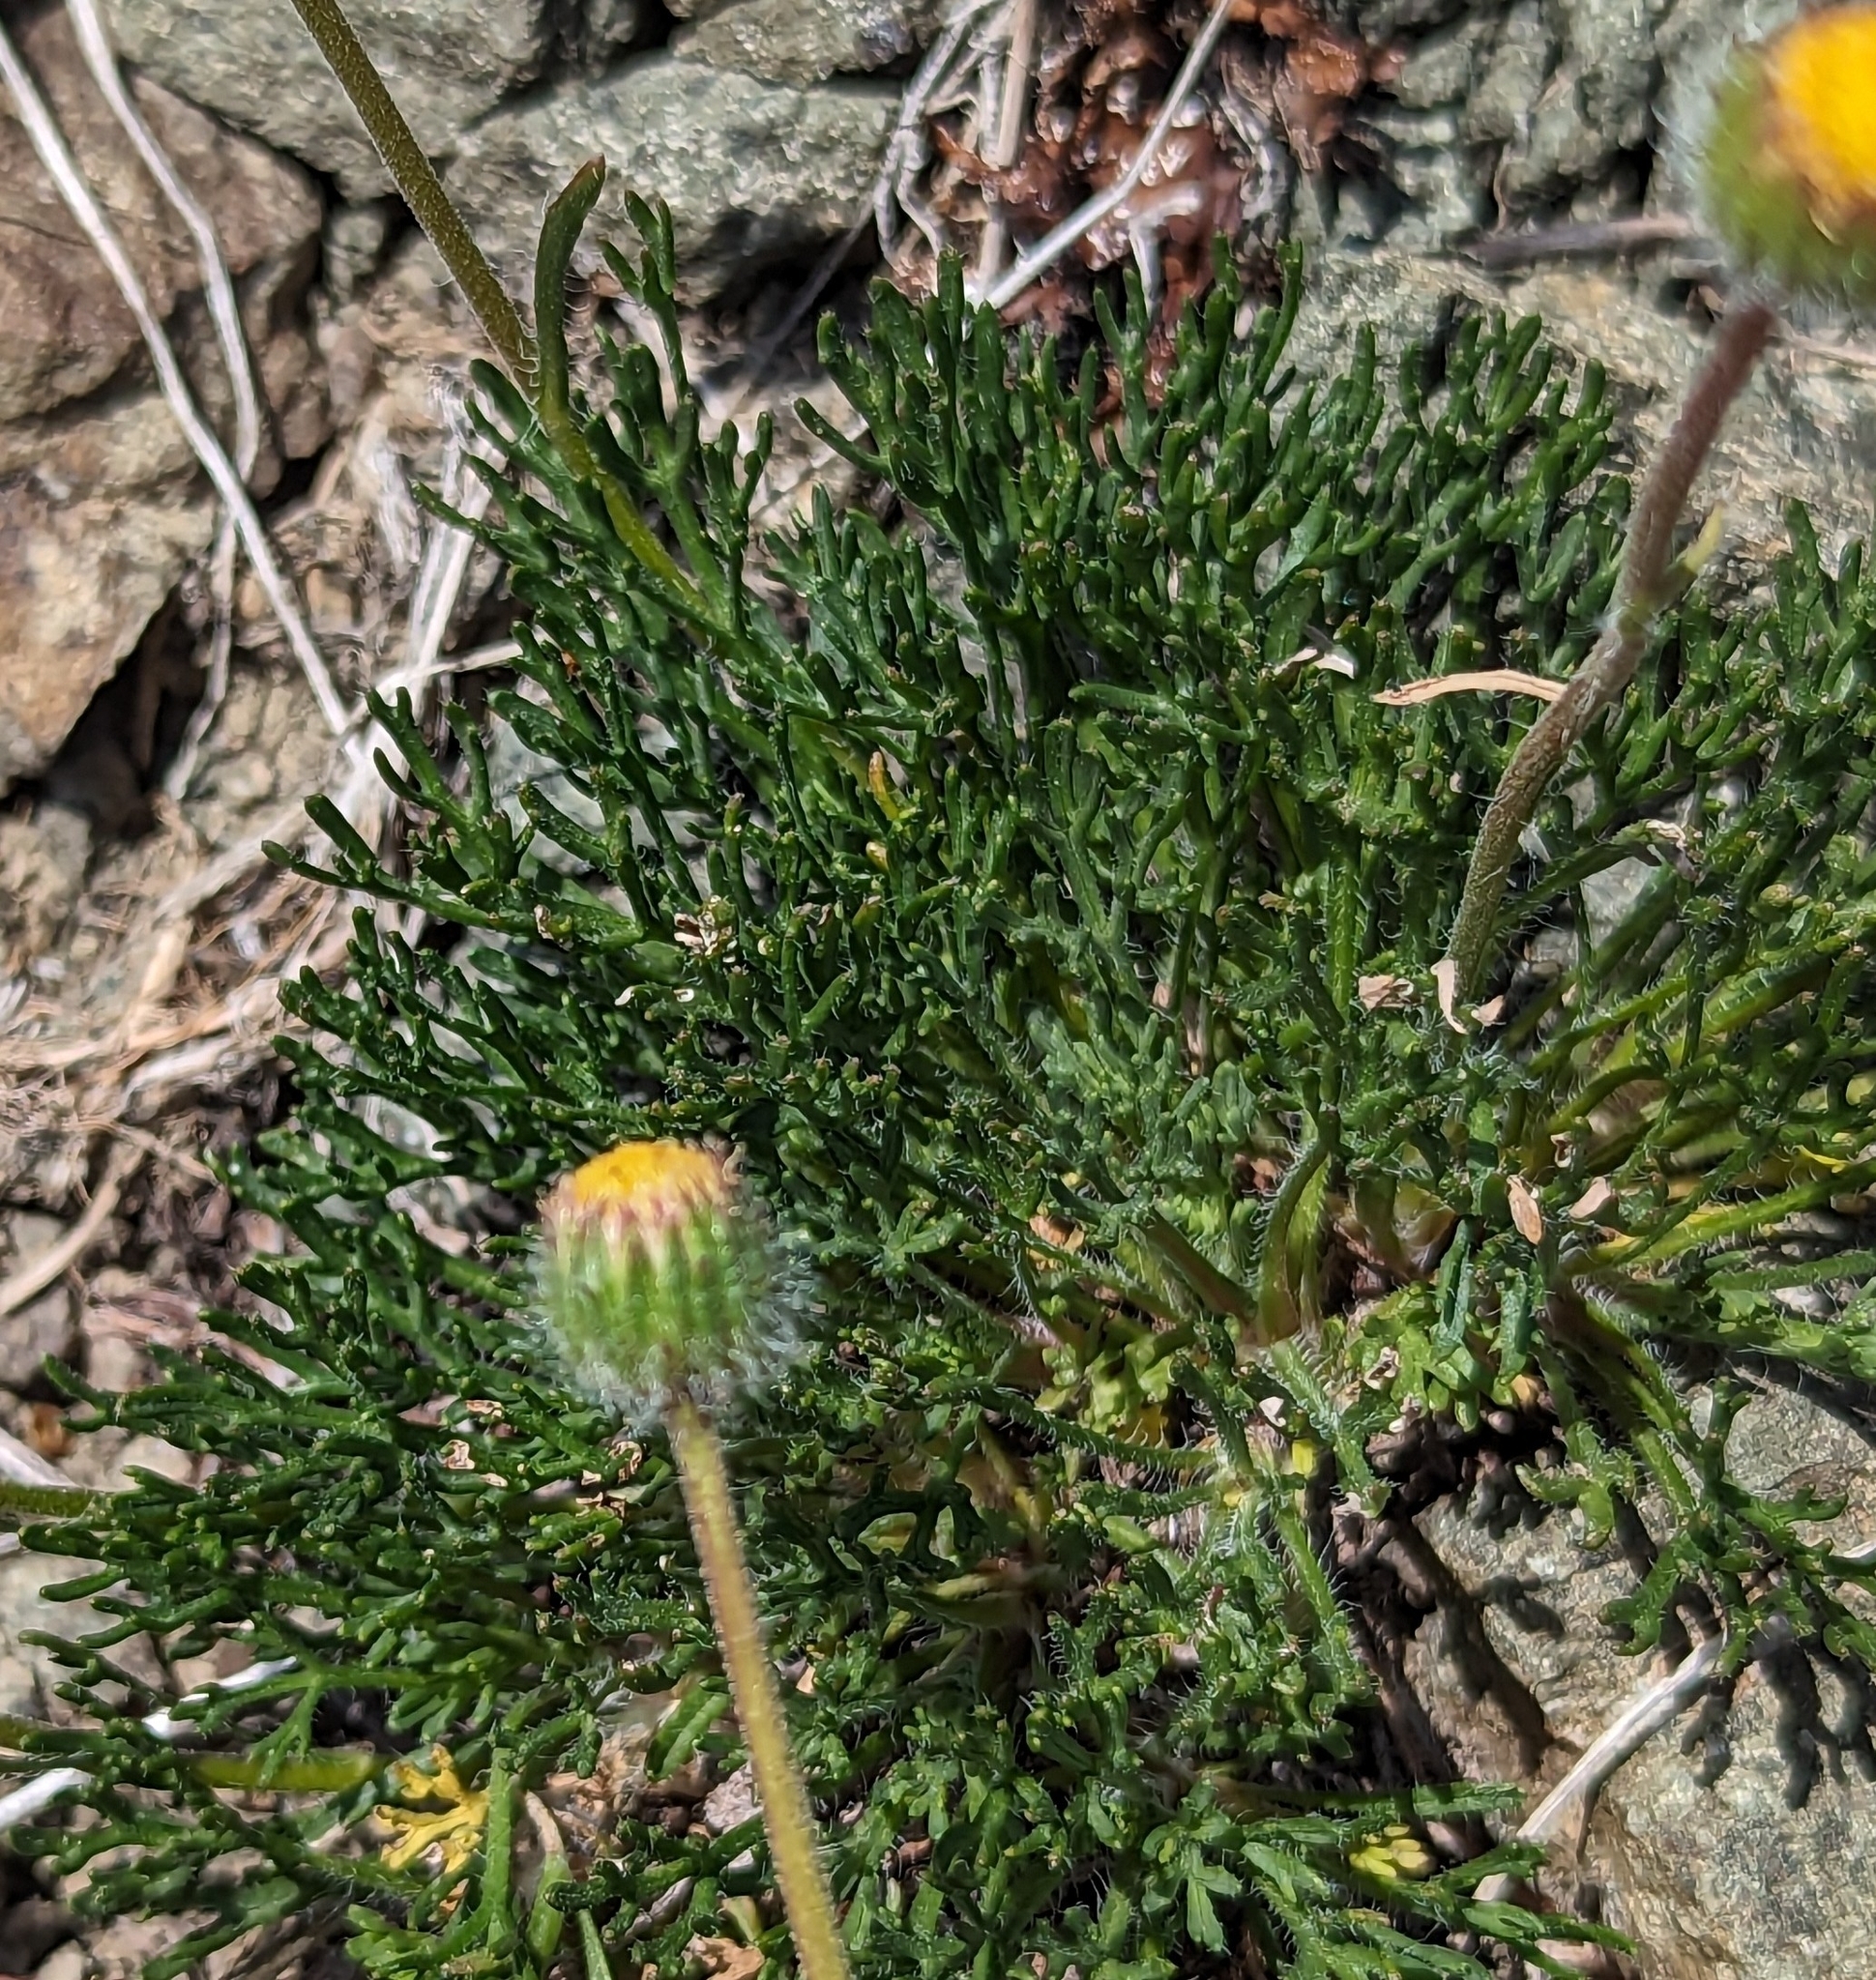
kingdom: Plantae
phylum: Tracheophyta
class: Magnoliopsida
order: Asterales
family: Asteraceae
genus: Erigeron
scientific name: Erigeron compositus
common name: Dwarf mountain fleabane
